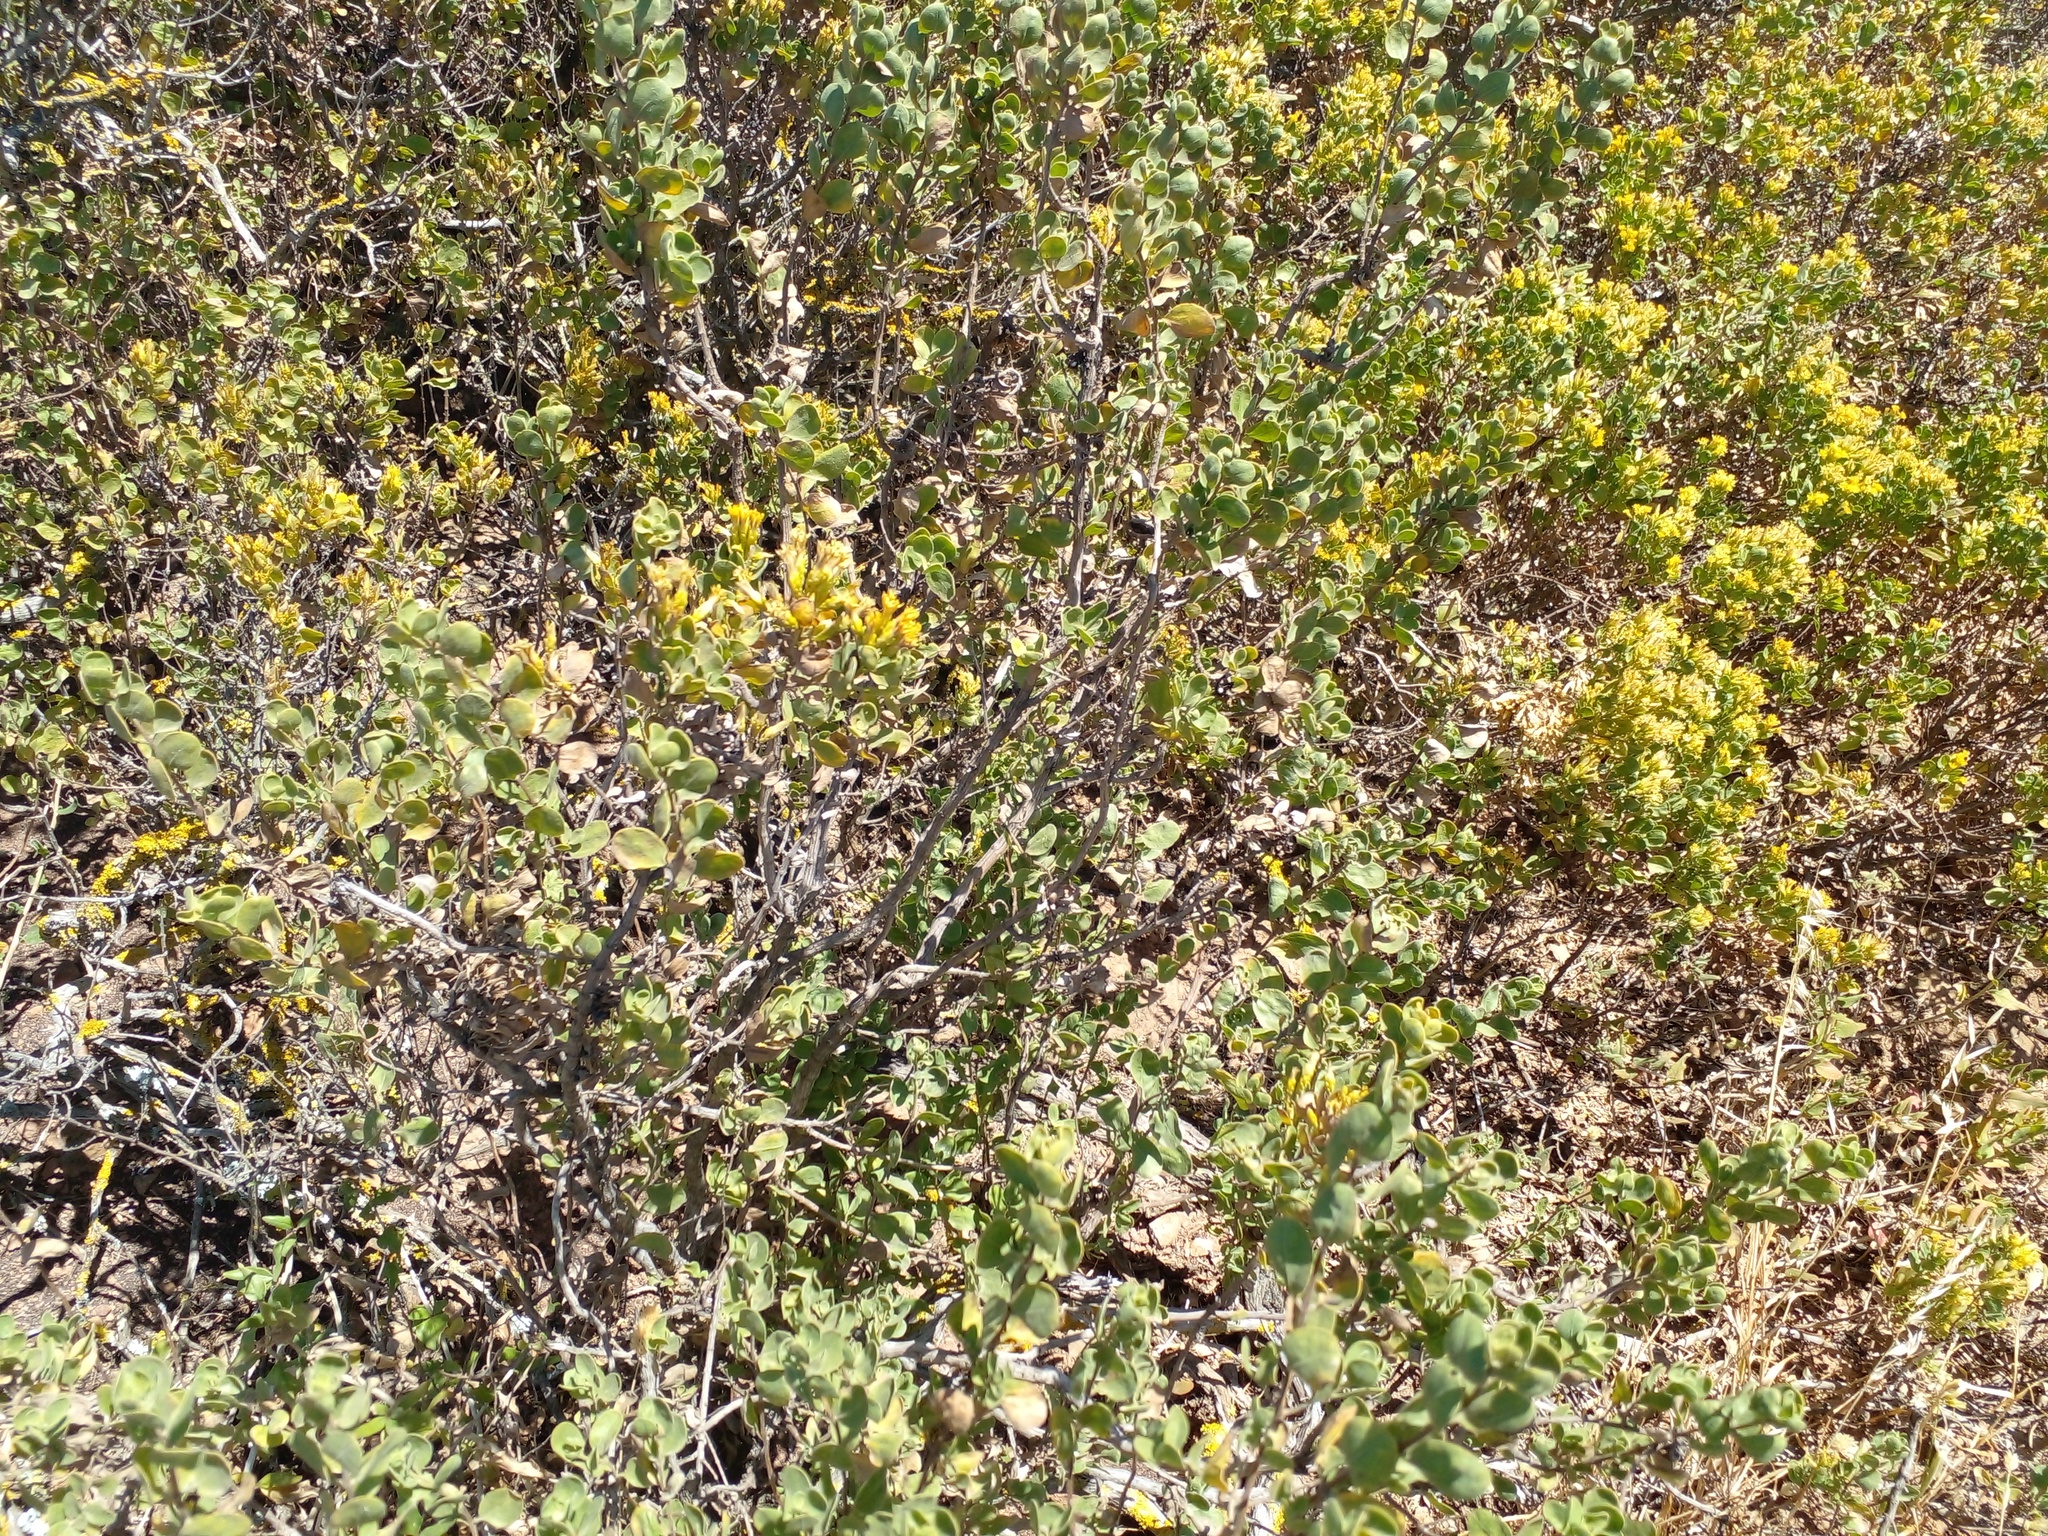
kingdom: Plantae
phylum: Tracheophyta
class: Magnoliopsida
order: Asterales
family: Asteraceae
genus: Pteronia
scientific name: Pteronia divaricata
